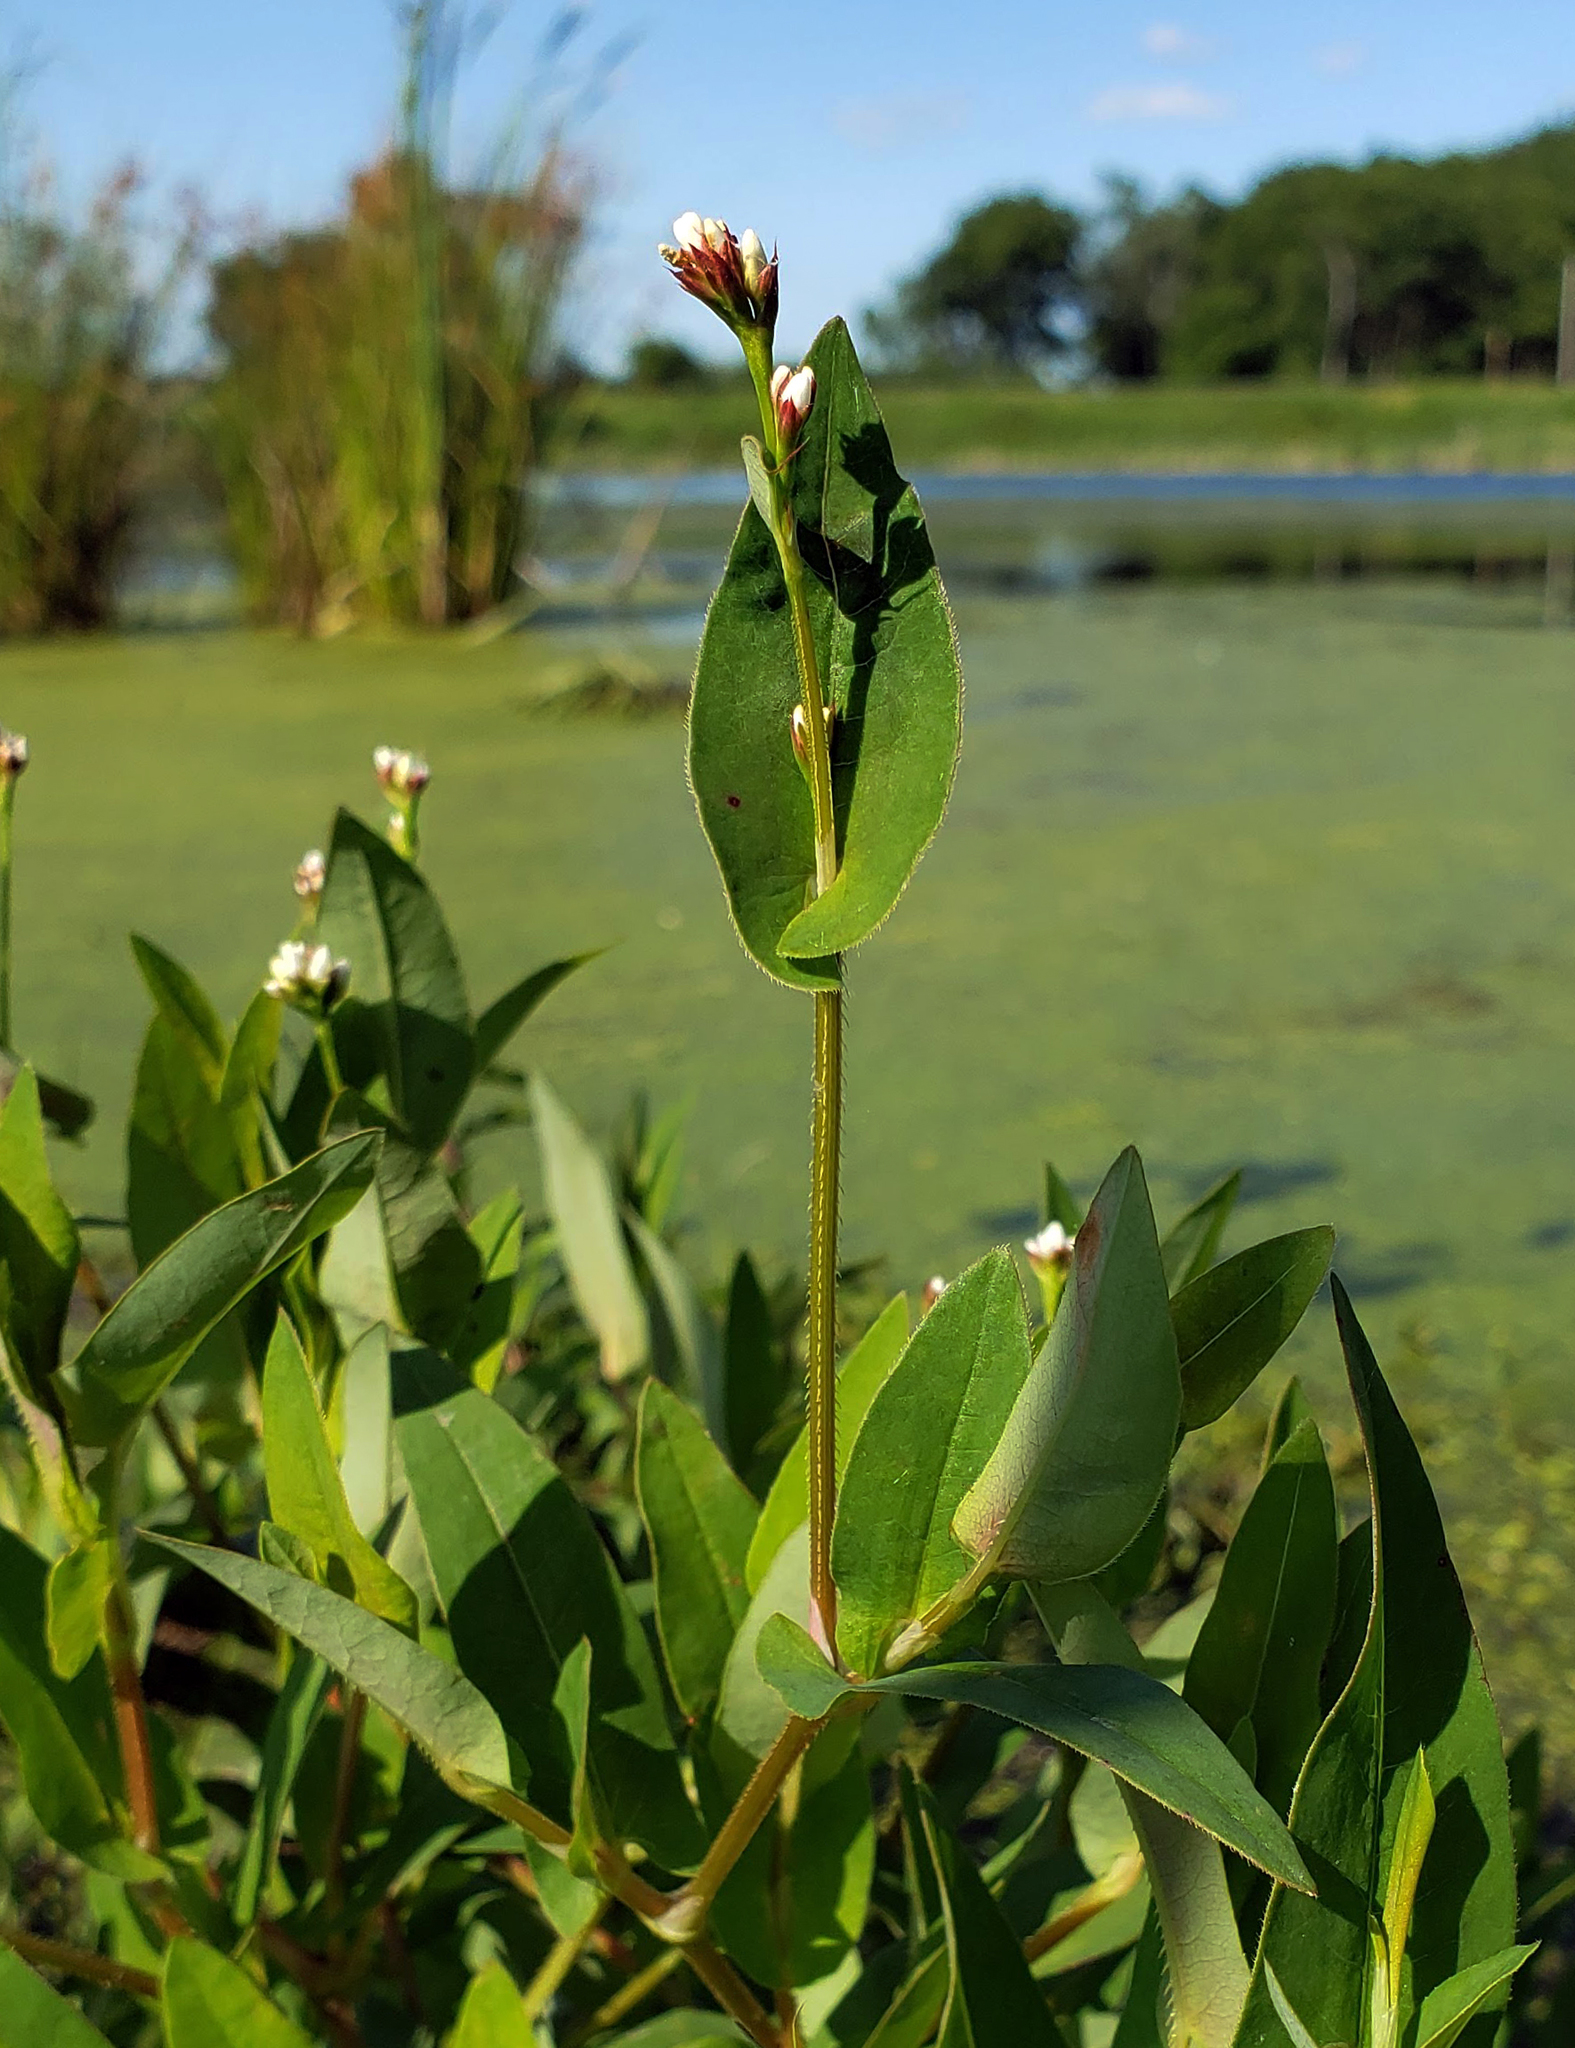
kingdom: Plantae
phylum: Tracheophyta
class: Magnoliopsida
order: Caryophyllales
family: Polygonaceae
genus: Persicaria
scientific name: Persicaria sagittata
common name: American tearthumb
